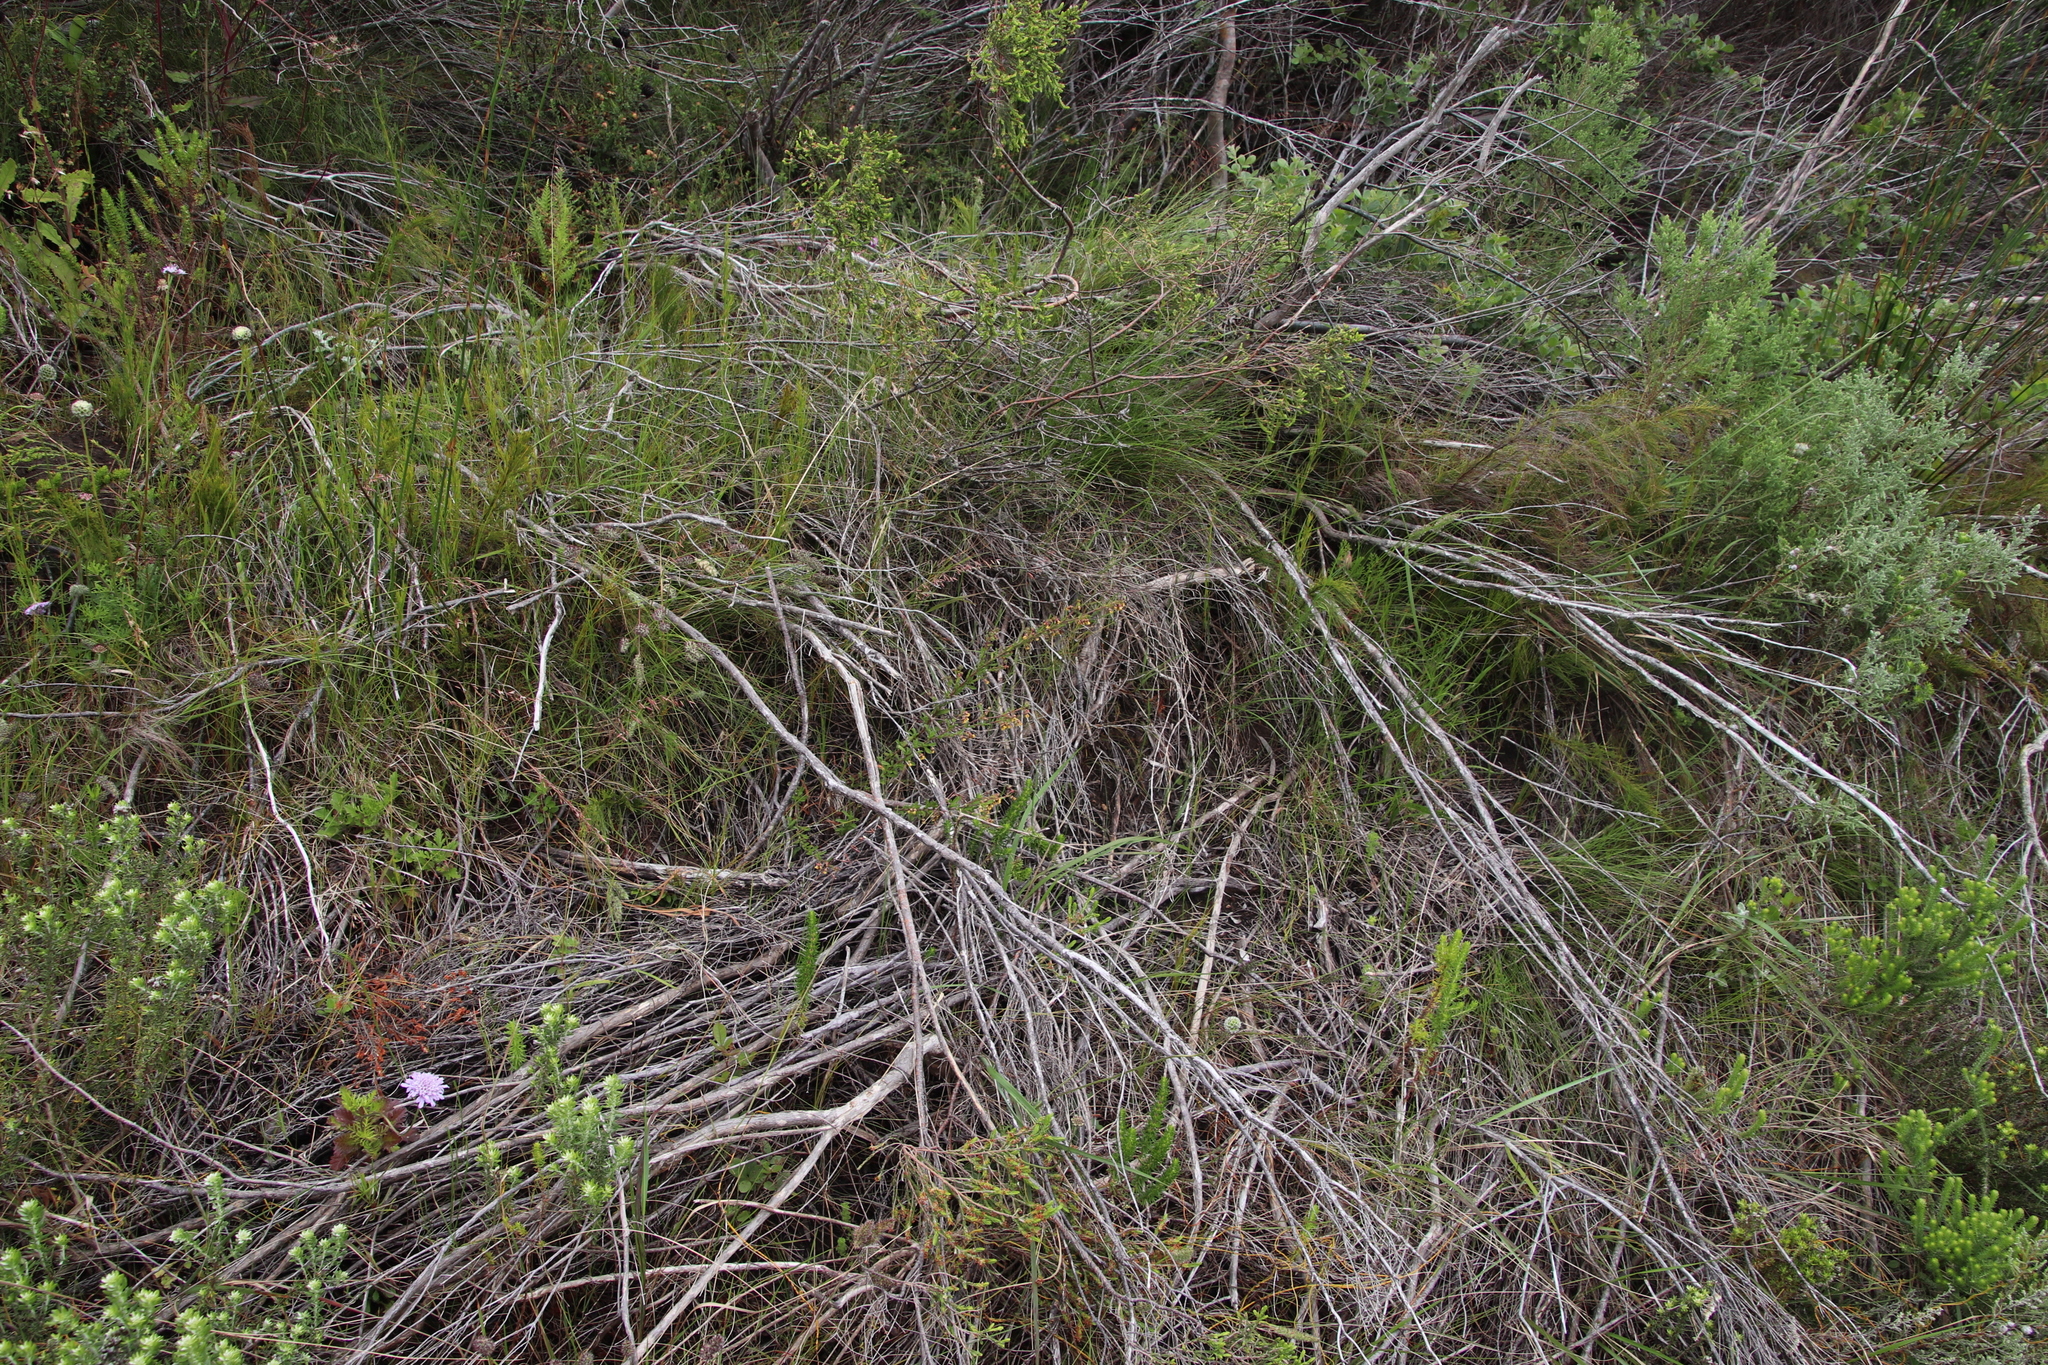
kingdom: Plantae
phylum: Tracheophyta
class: Magnoliopsida
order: Malvales
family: Malvaceae
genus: Hermannia
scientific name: Hermannia joubertiana
